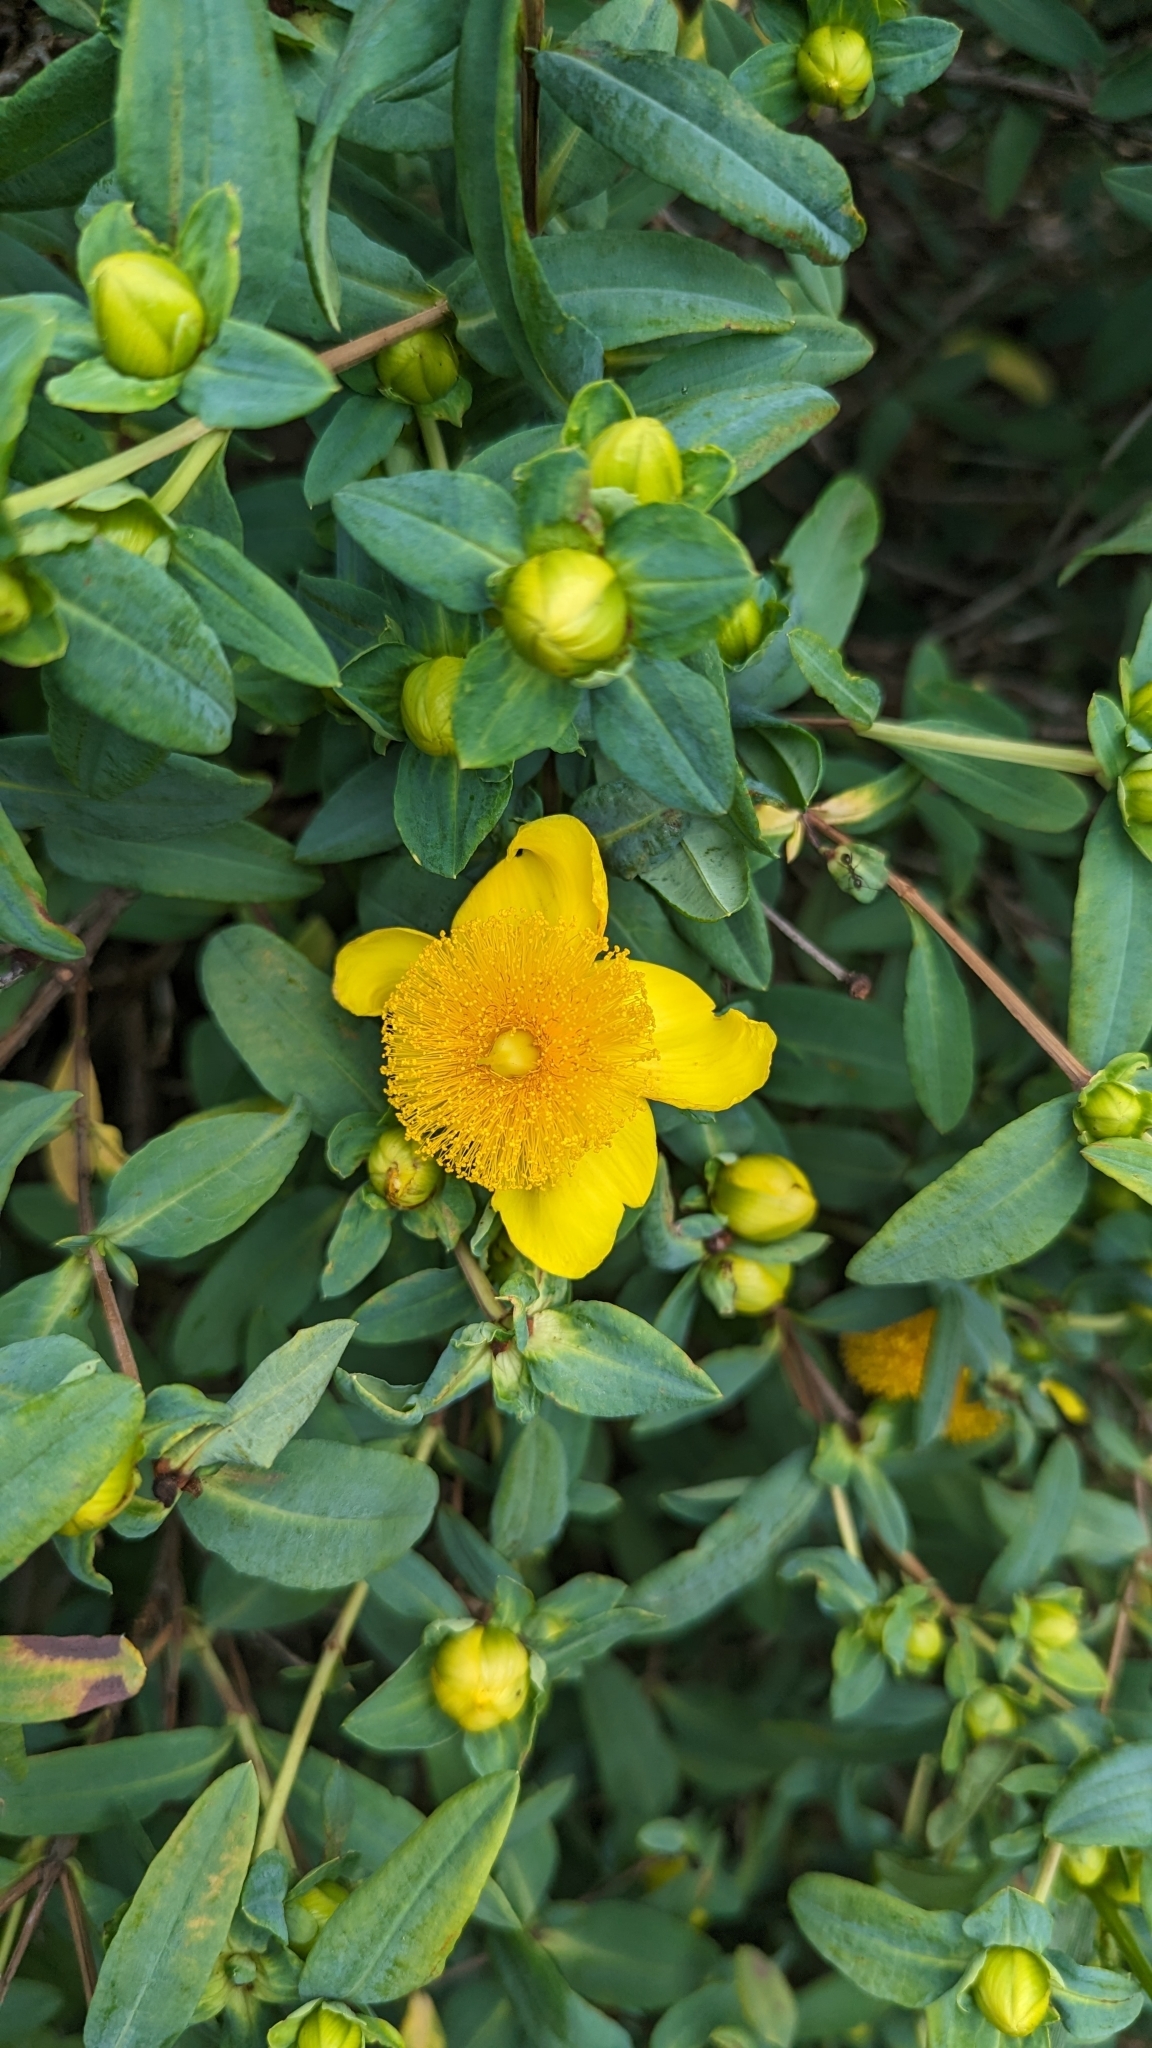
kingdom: Plantae
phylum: Tracheophyta
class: Magnoliopsida
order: Malpighiales
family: Hypericaceae
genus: Hypericum
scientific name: Hypericum prolificum
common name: Shrubby st. john's-wort
